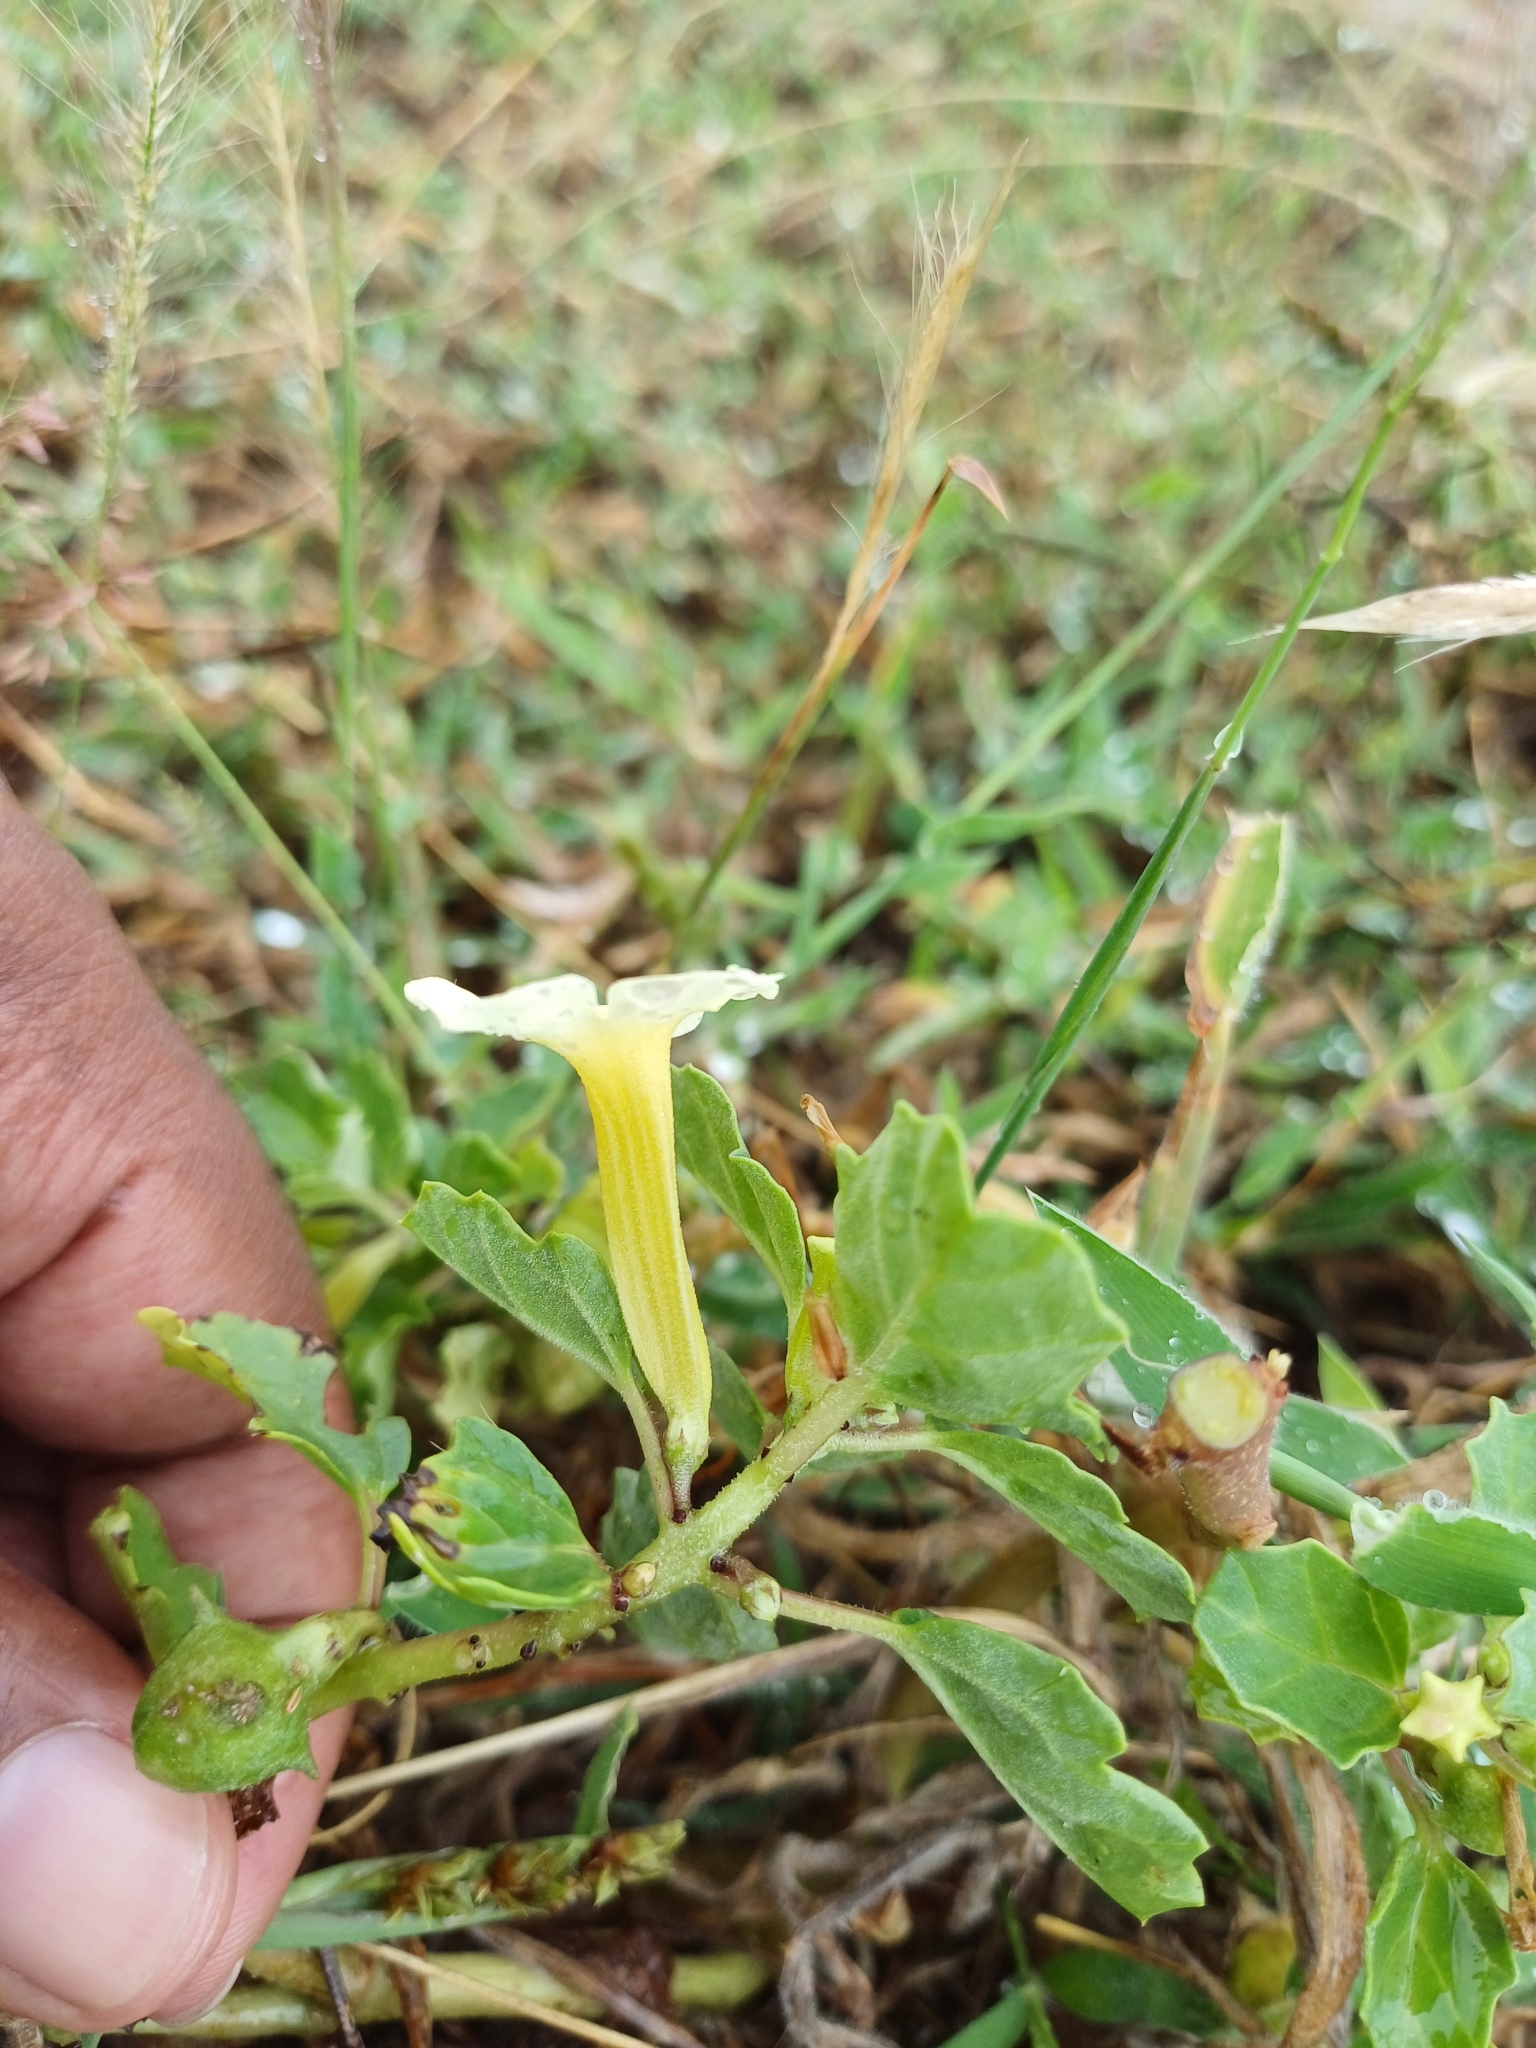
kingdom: Plantae
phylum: Tracheophyta
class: Magnoliopsida
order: Lamiales
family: Pedaliaceae
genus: Pedalium
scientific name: Pedalium murex
